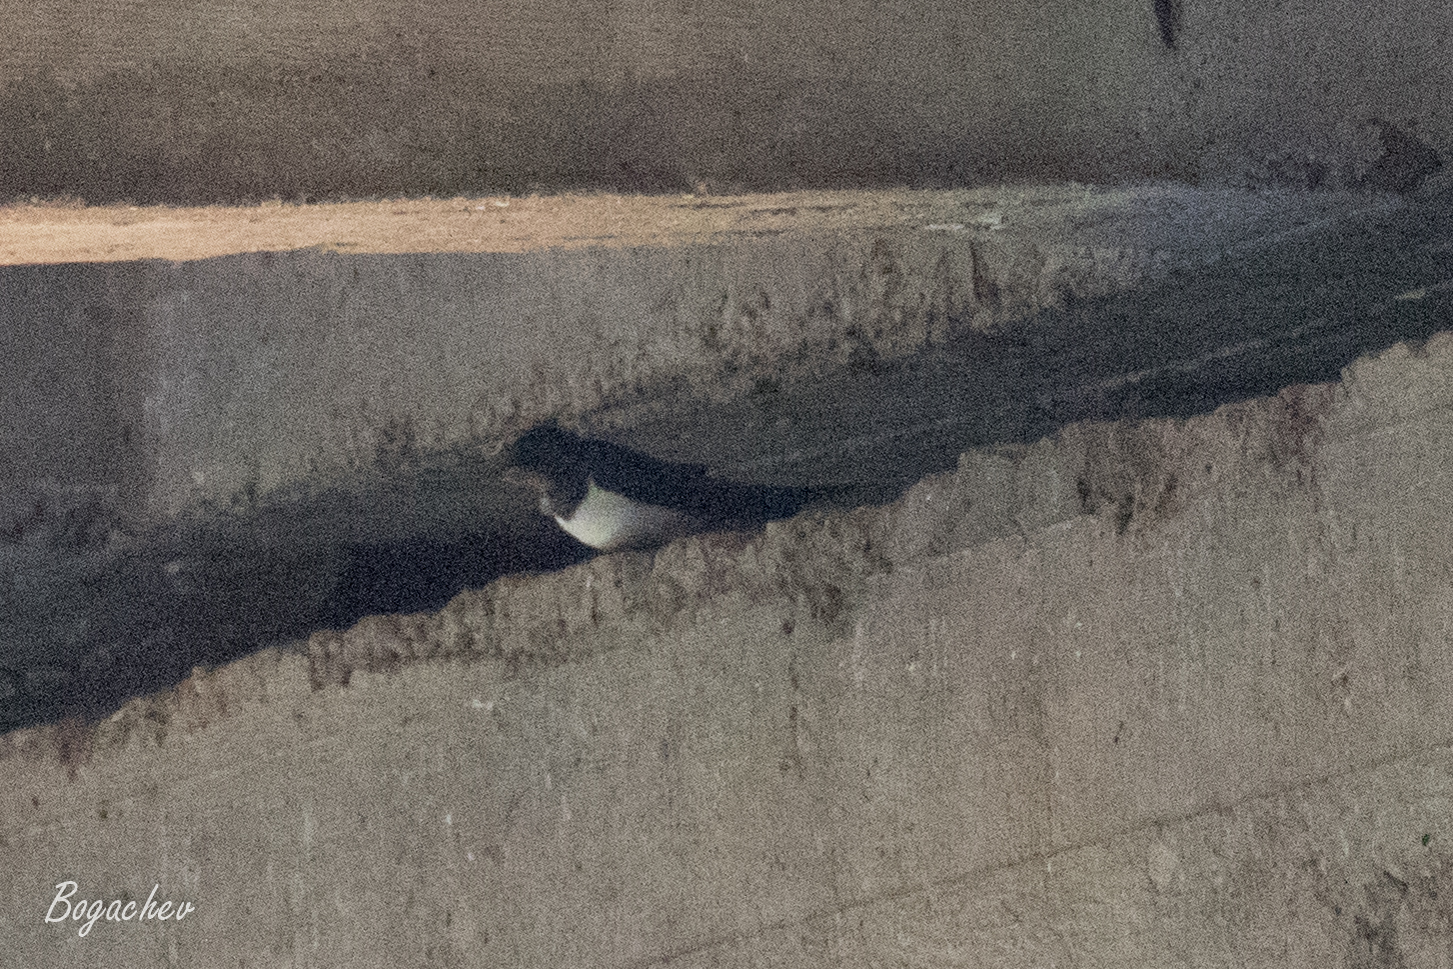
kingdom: Animalia
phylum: Chordata
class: Aves
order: Passeriformes
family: Hirundinidae
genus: Hirundo
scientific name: Hirundo rustica
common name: Barn swallow
